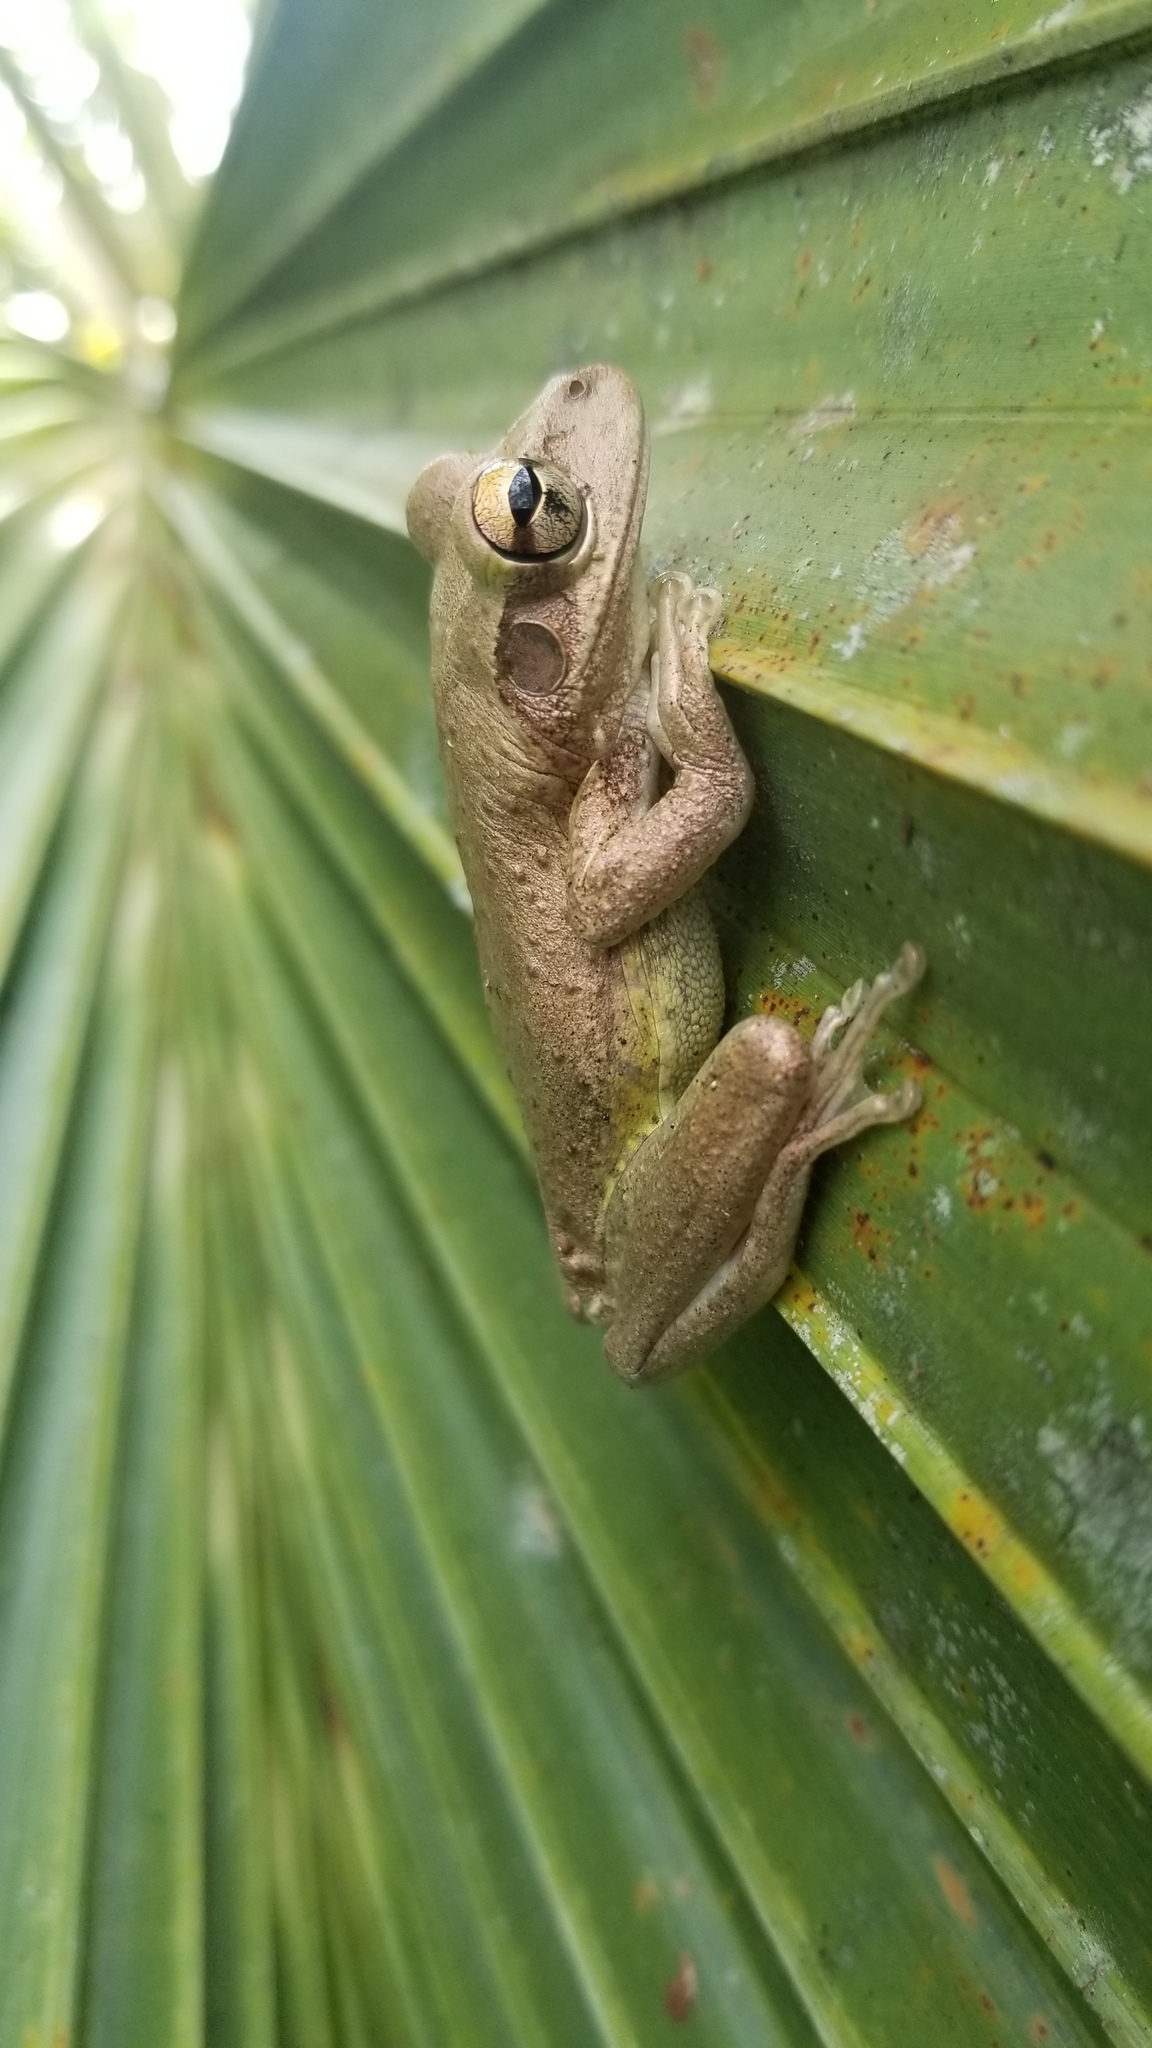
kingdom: Animalia
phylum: Chordata
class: Amphibia
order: Anura
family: Hylidae
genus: Osteopilus
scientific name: Osteopilus septentrionalis
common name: Cuban treefrog
